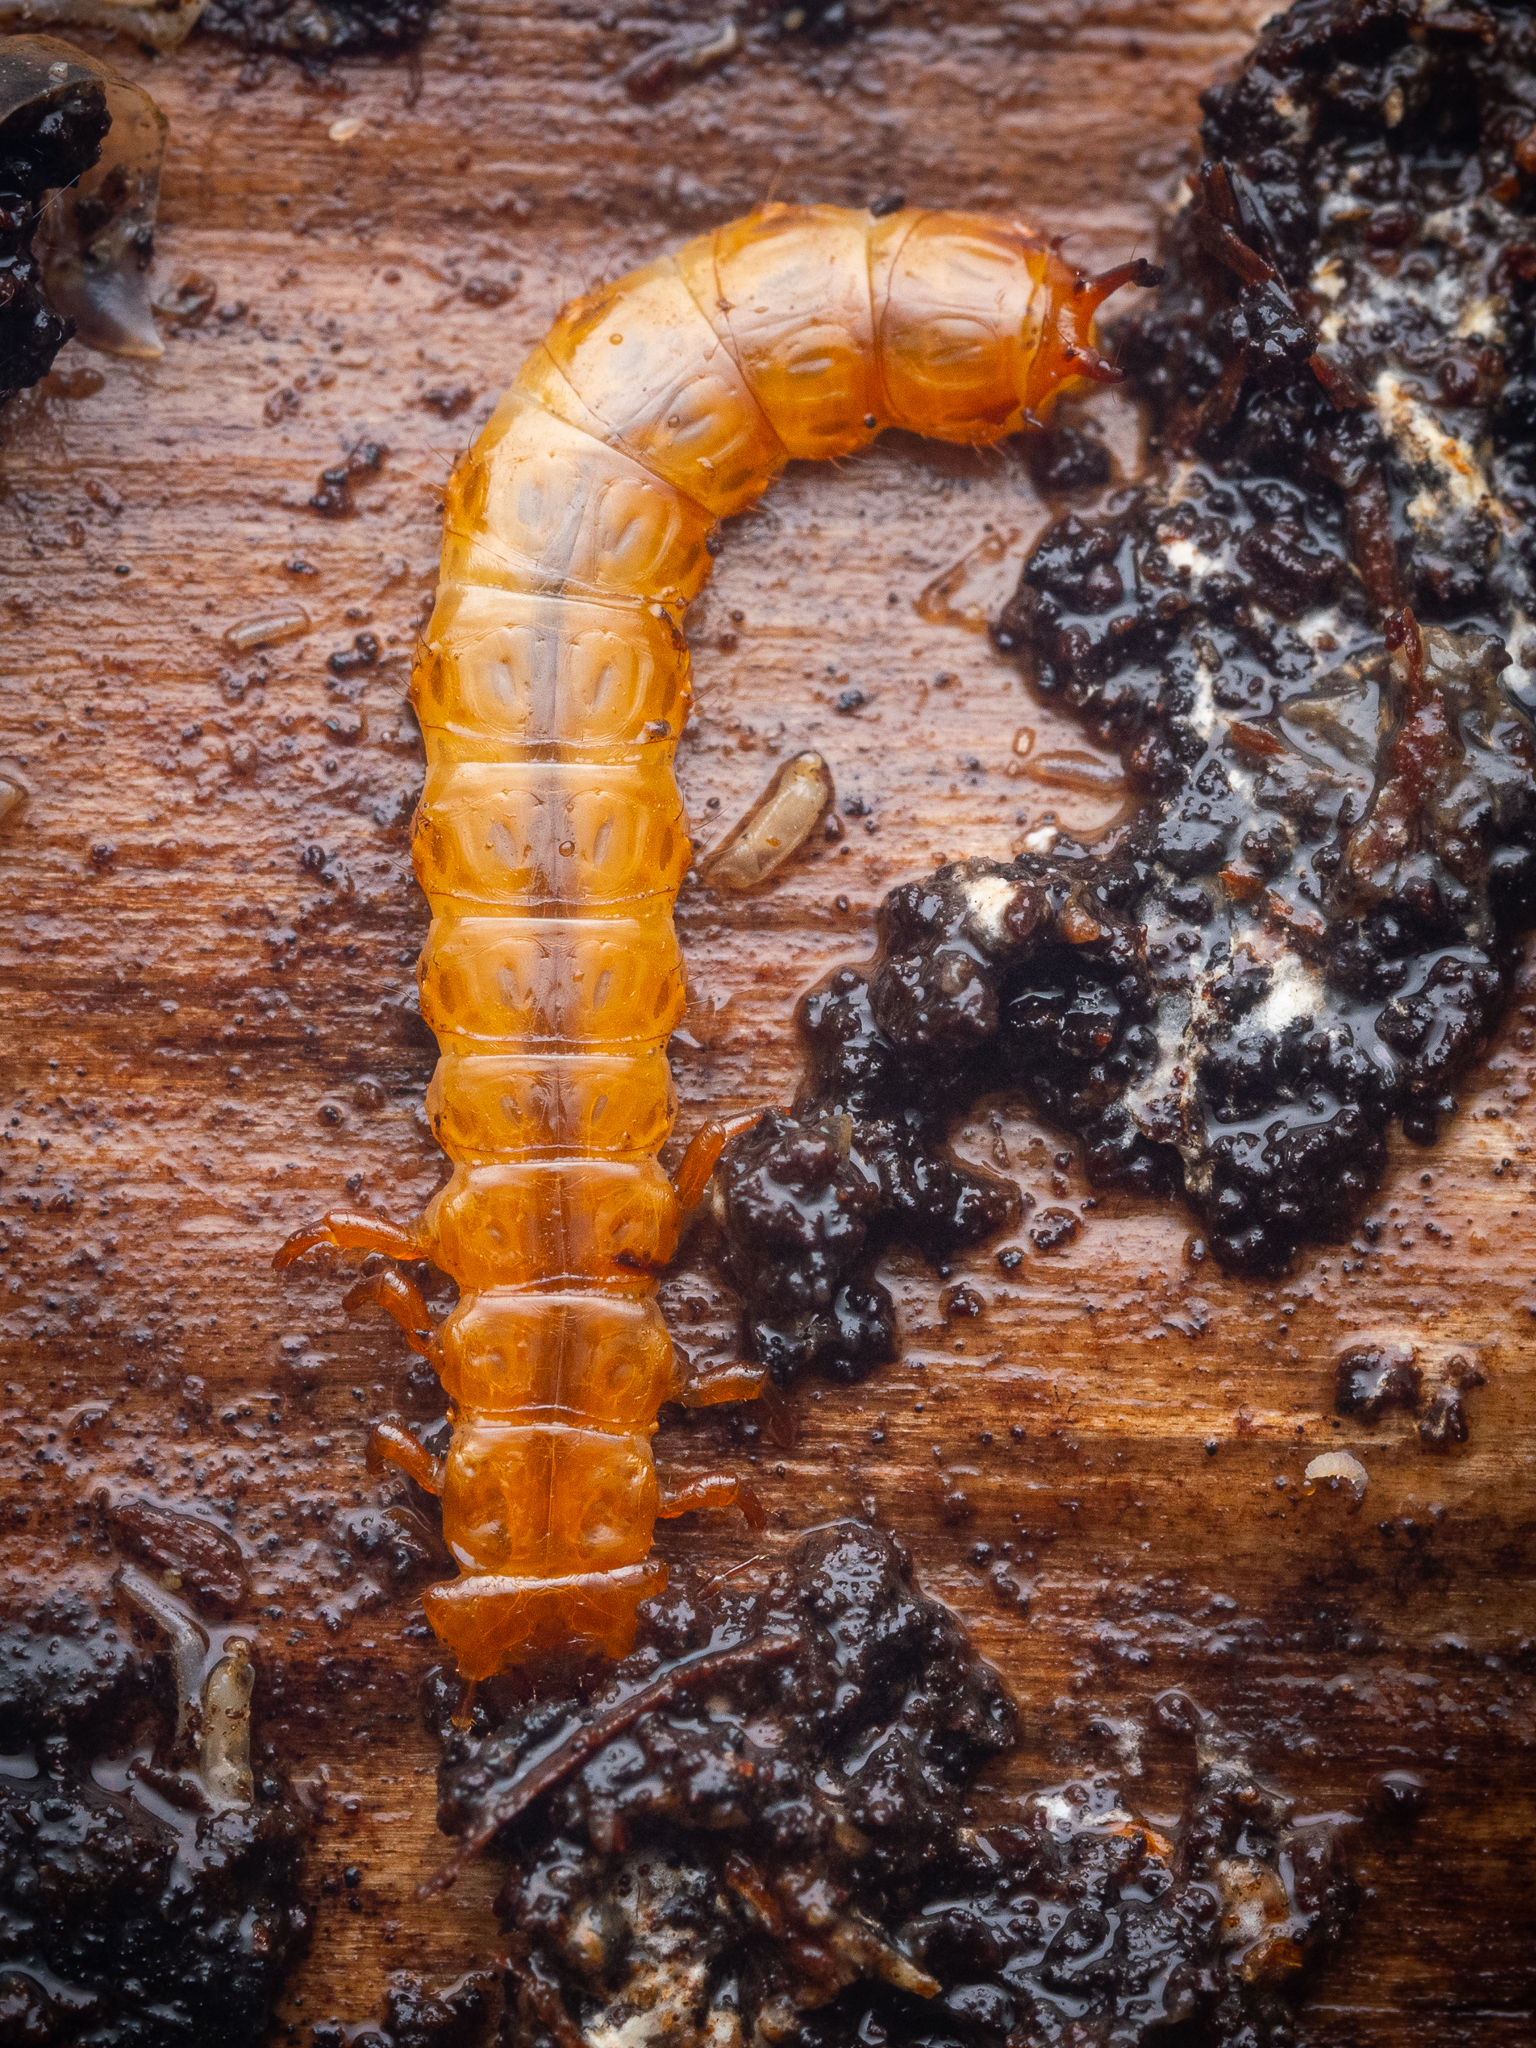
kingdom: Animalia
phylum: Arthropoda
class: Insecta
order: Coleoptera
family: Cucujidae
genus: Cucujus
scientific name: Cucujus cinnaberinus
